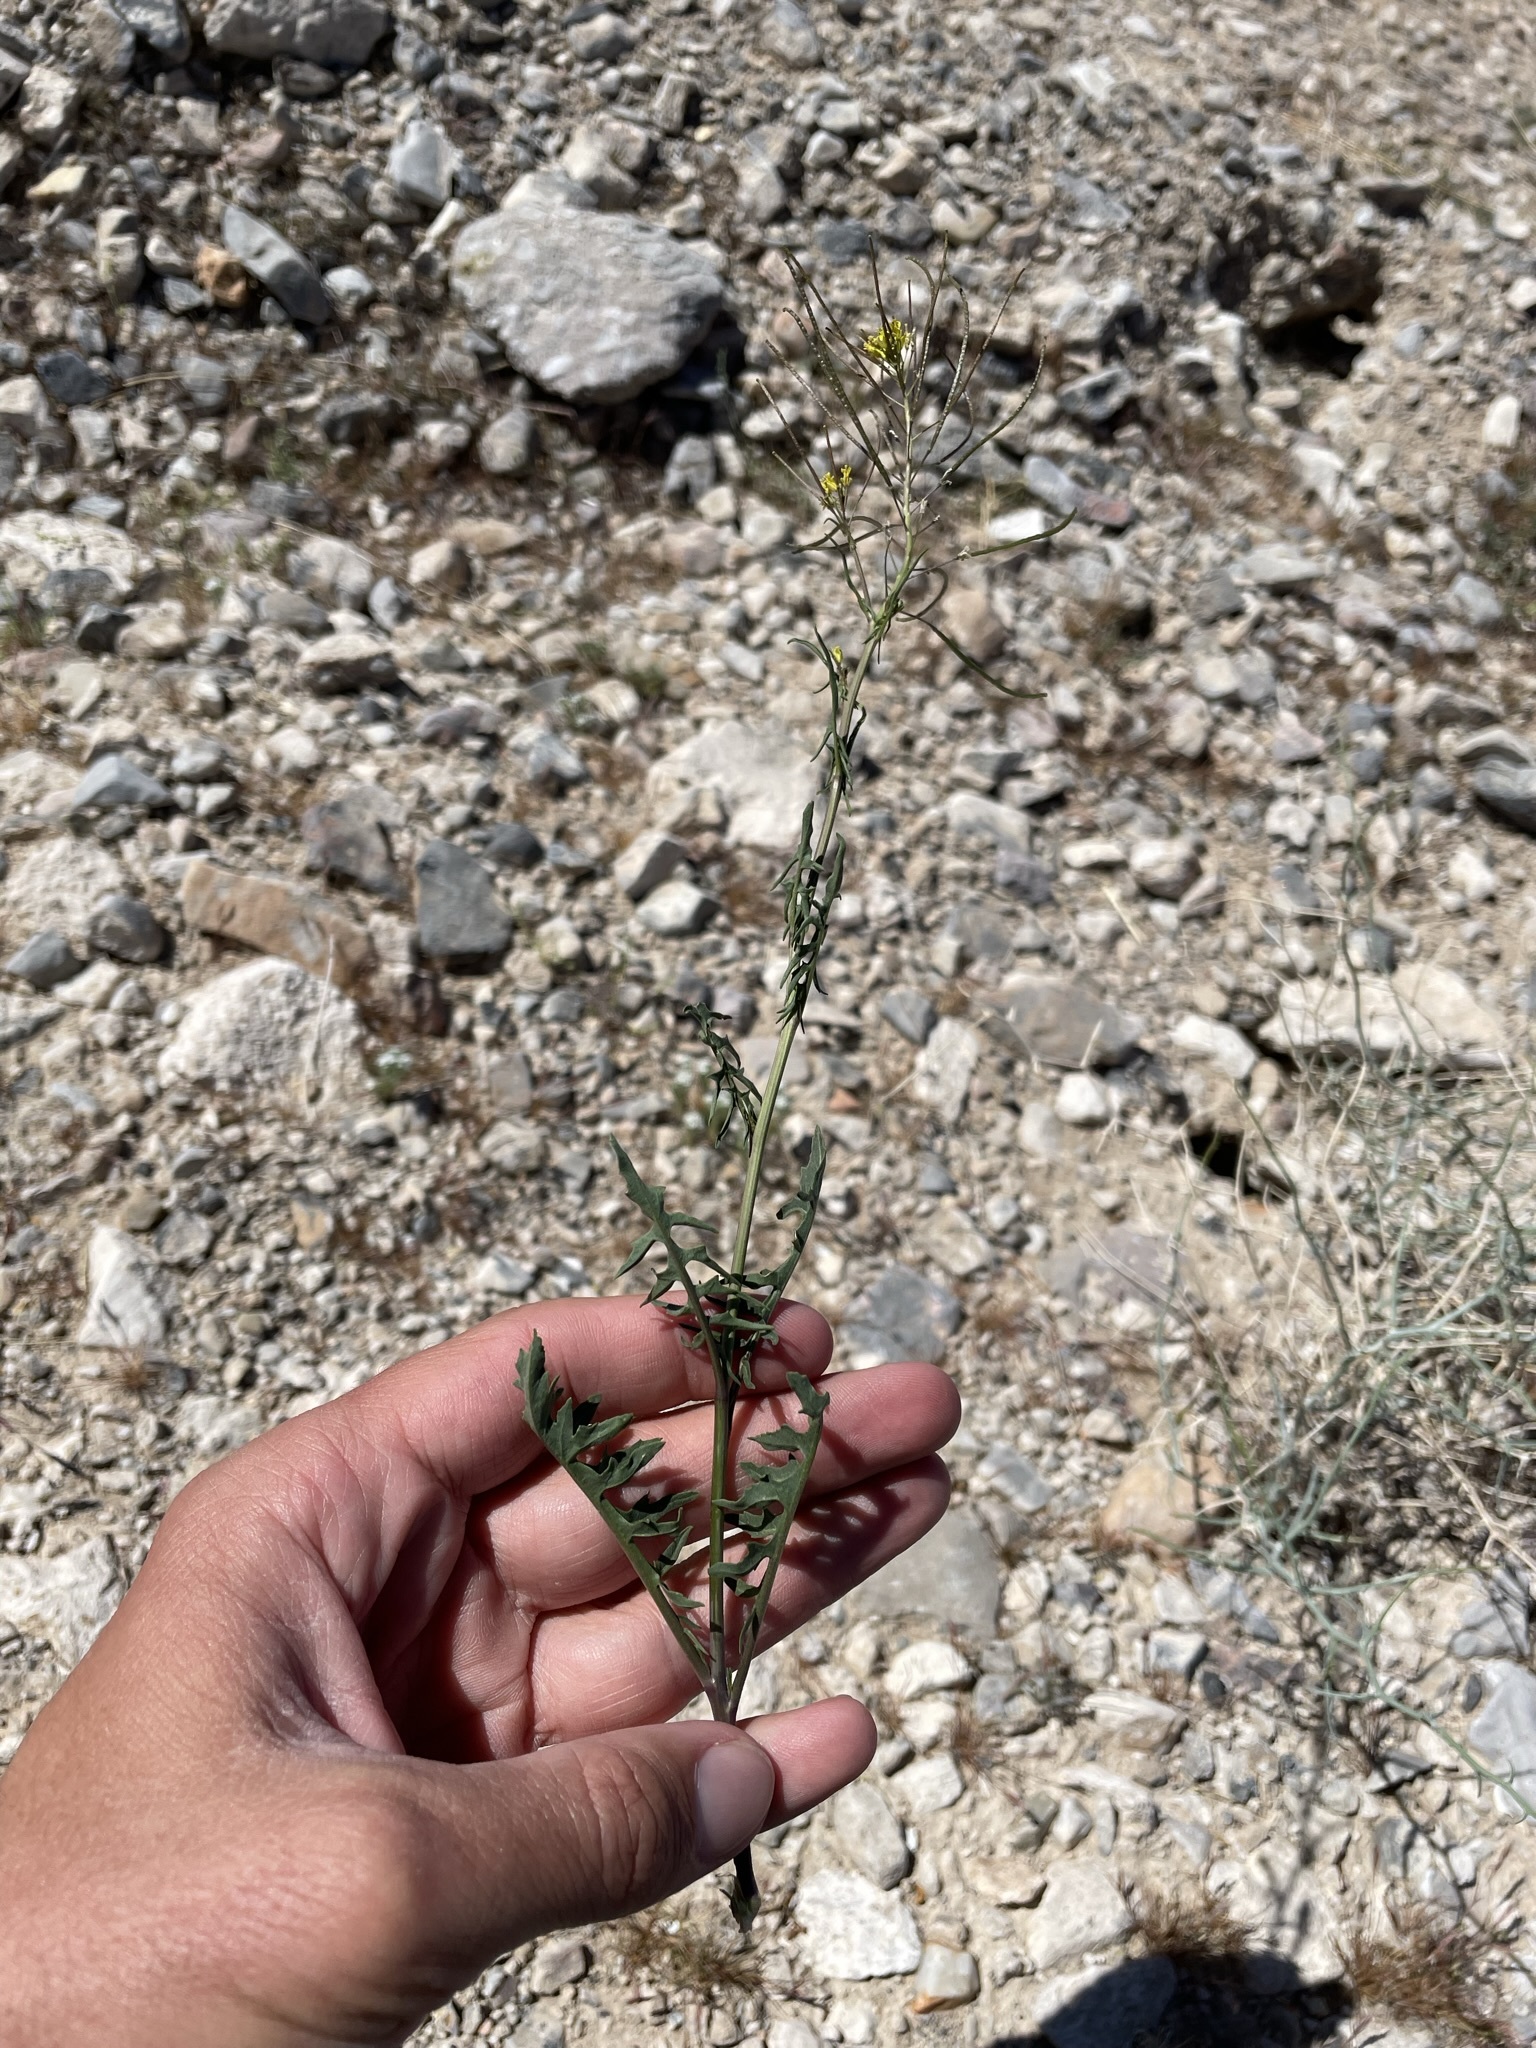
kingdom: Plantae
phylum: Tracheophyta
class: Magnoliopsida
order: Brassicales
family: Brassicaceae
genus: Sisymbrium
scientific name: Sisymbrium irio
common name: London rocket
